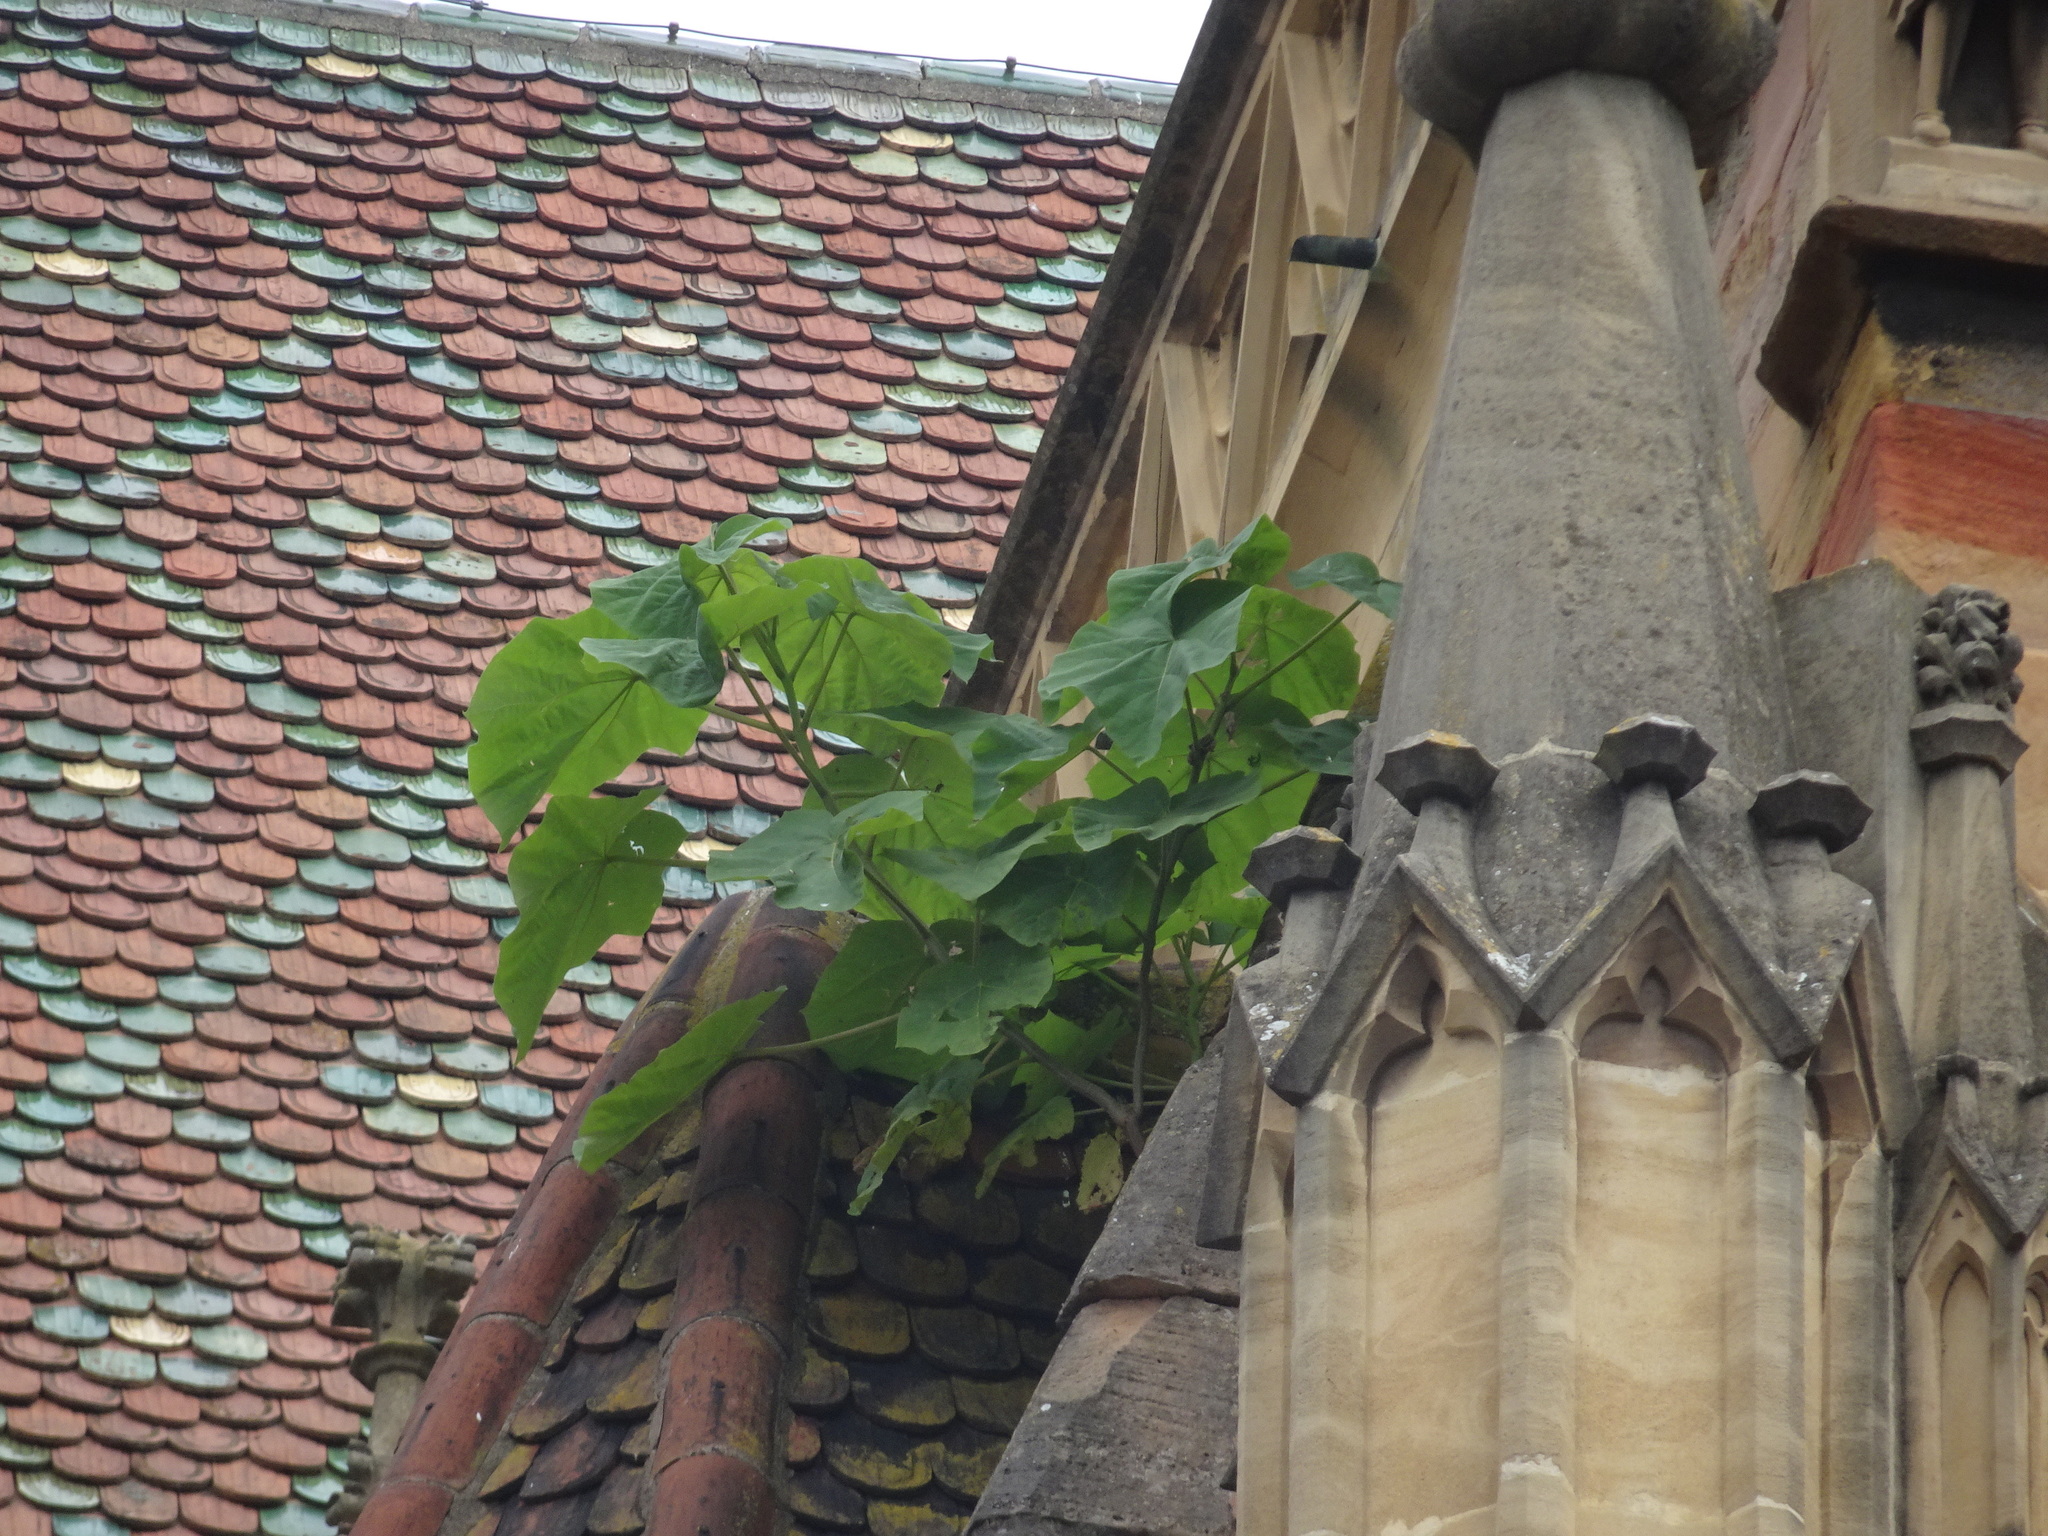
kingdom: Plantae
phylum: Tracheophyta
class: Magnoliopsida
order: Lamiales
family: Paulowniaceae
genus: Paulownia
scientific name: Paulownia tomentosa
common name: Foxglove-tree
